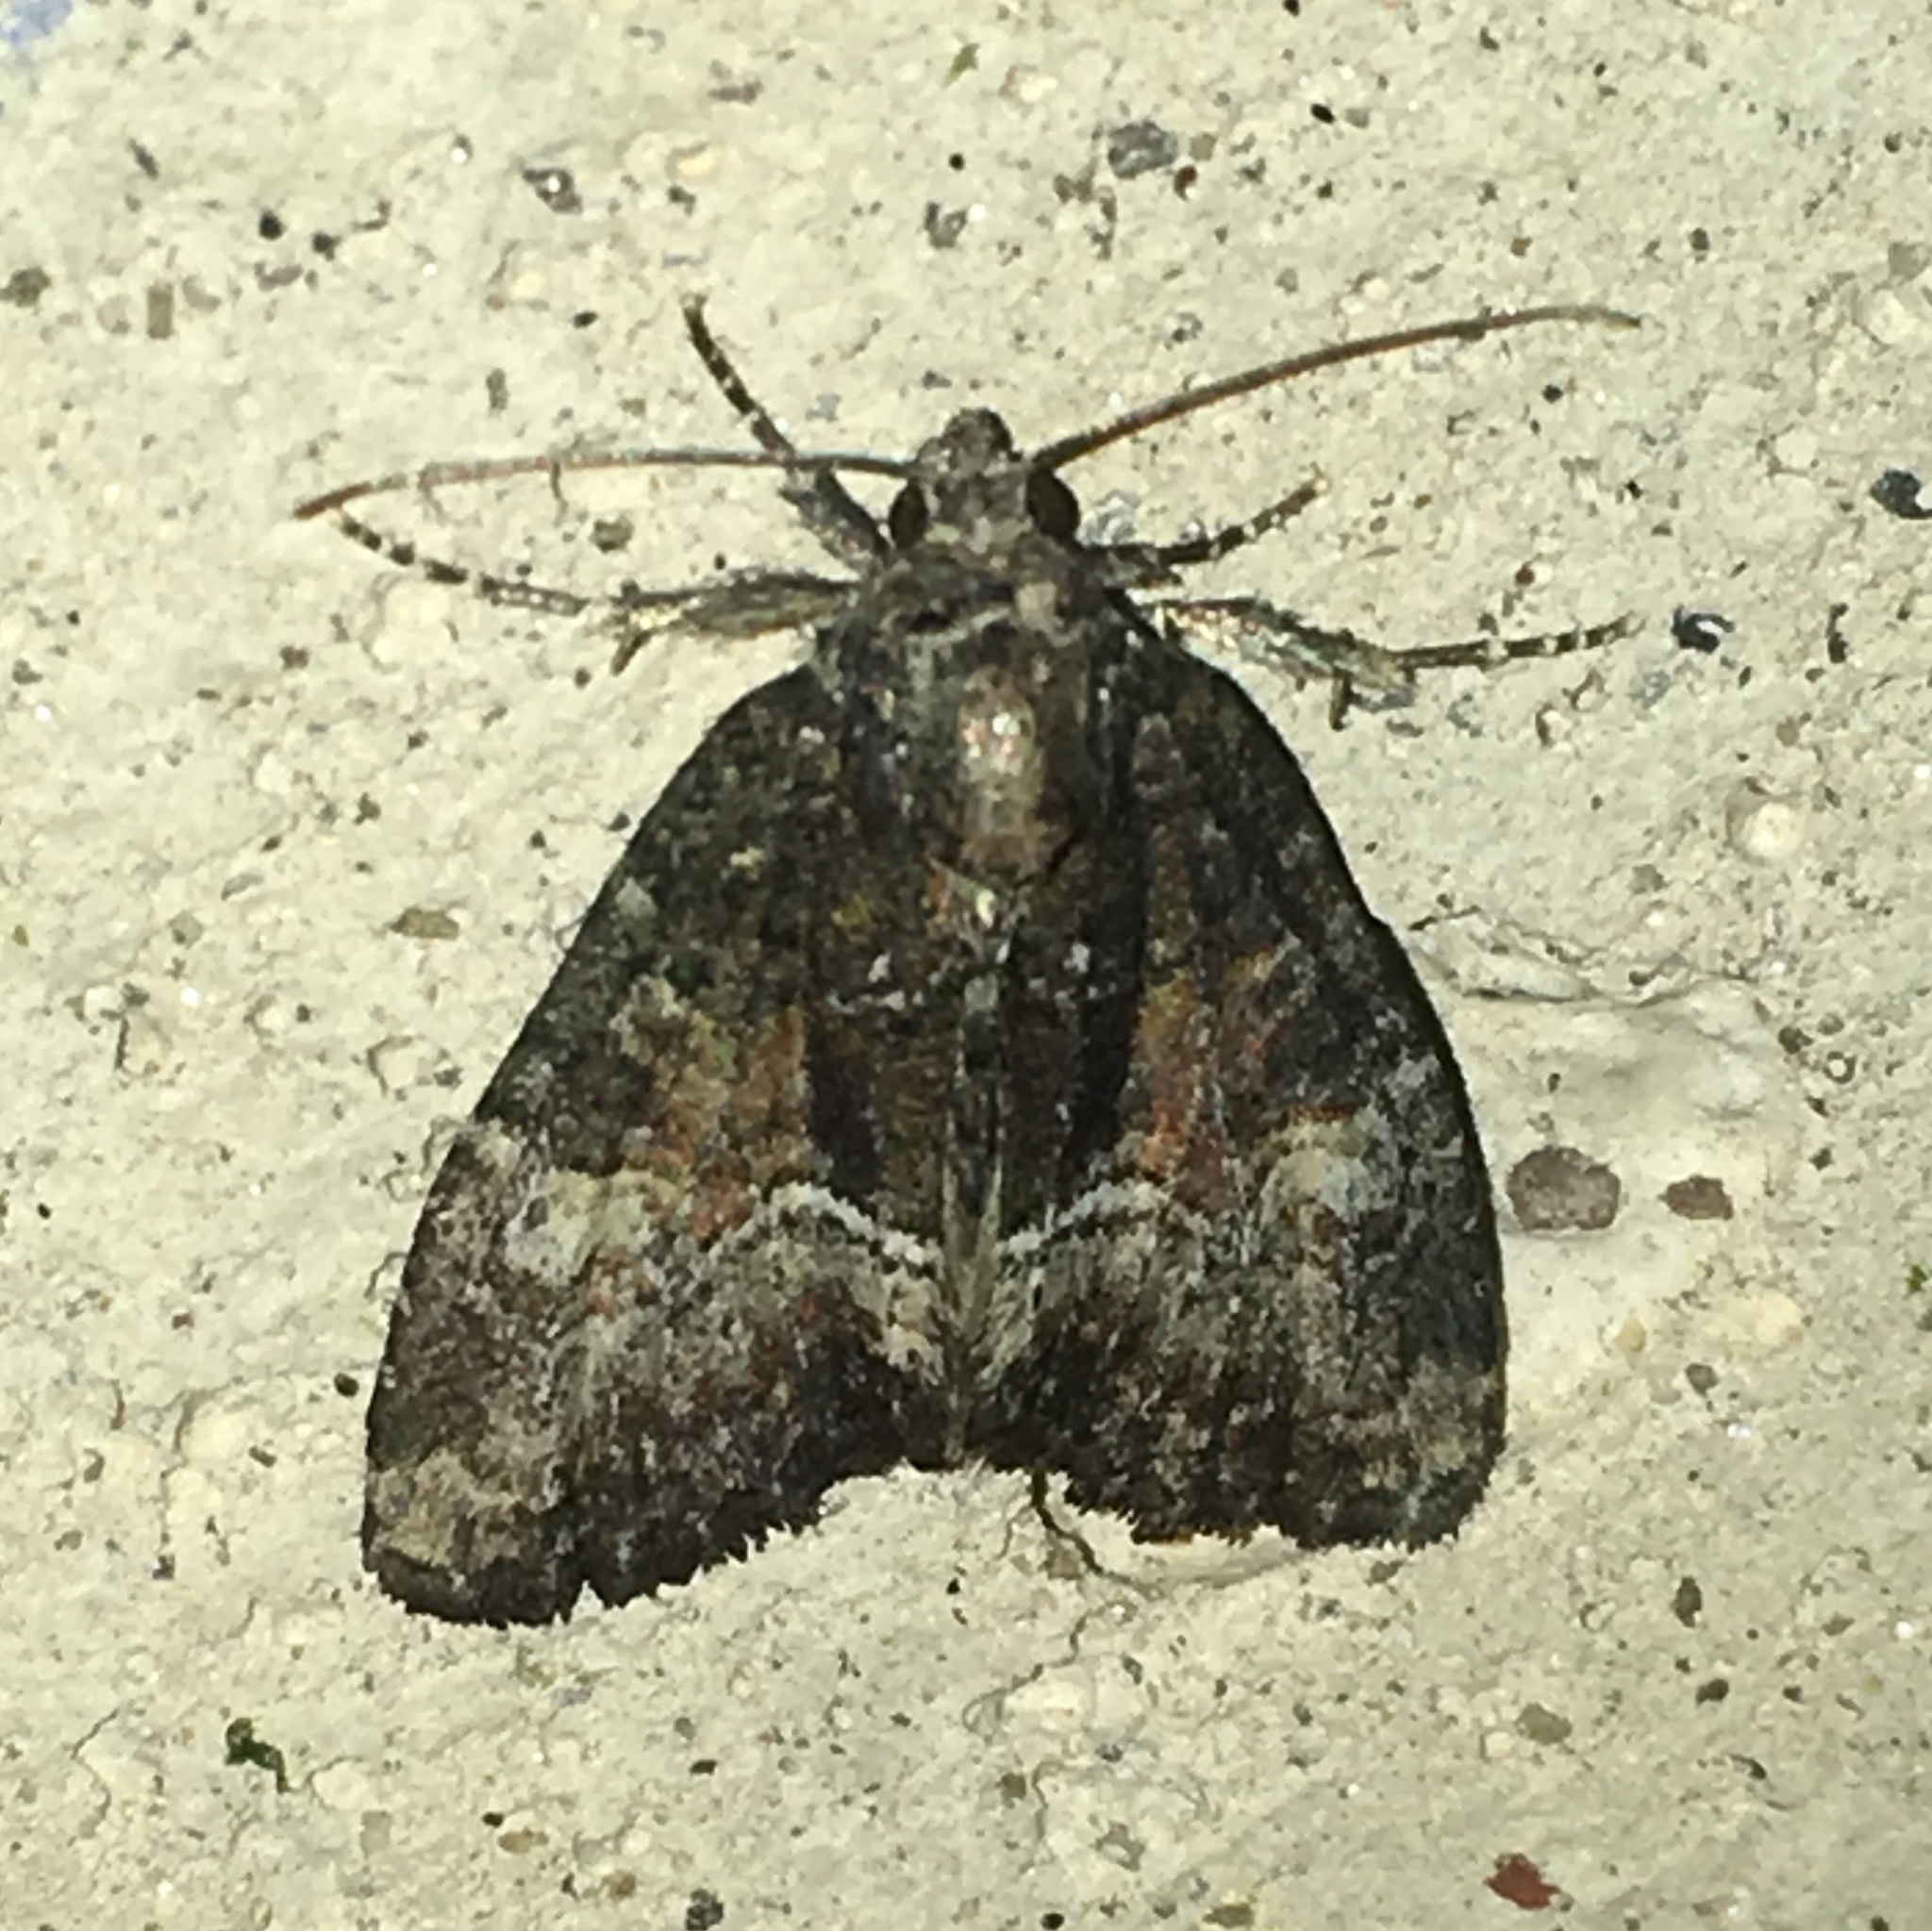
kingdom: Animalia
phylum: Arthropoda
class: Insecta
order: Lepidoptera
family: Noctuidae
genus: Neoligia
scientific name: Neoligia subjuncta
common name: Connected brocade
